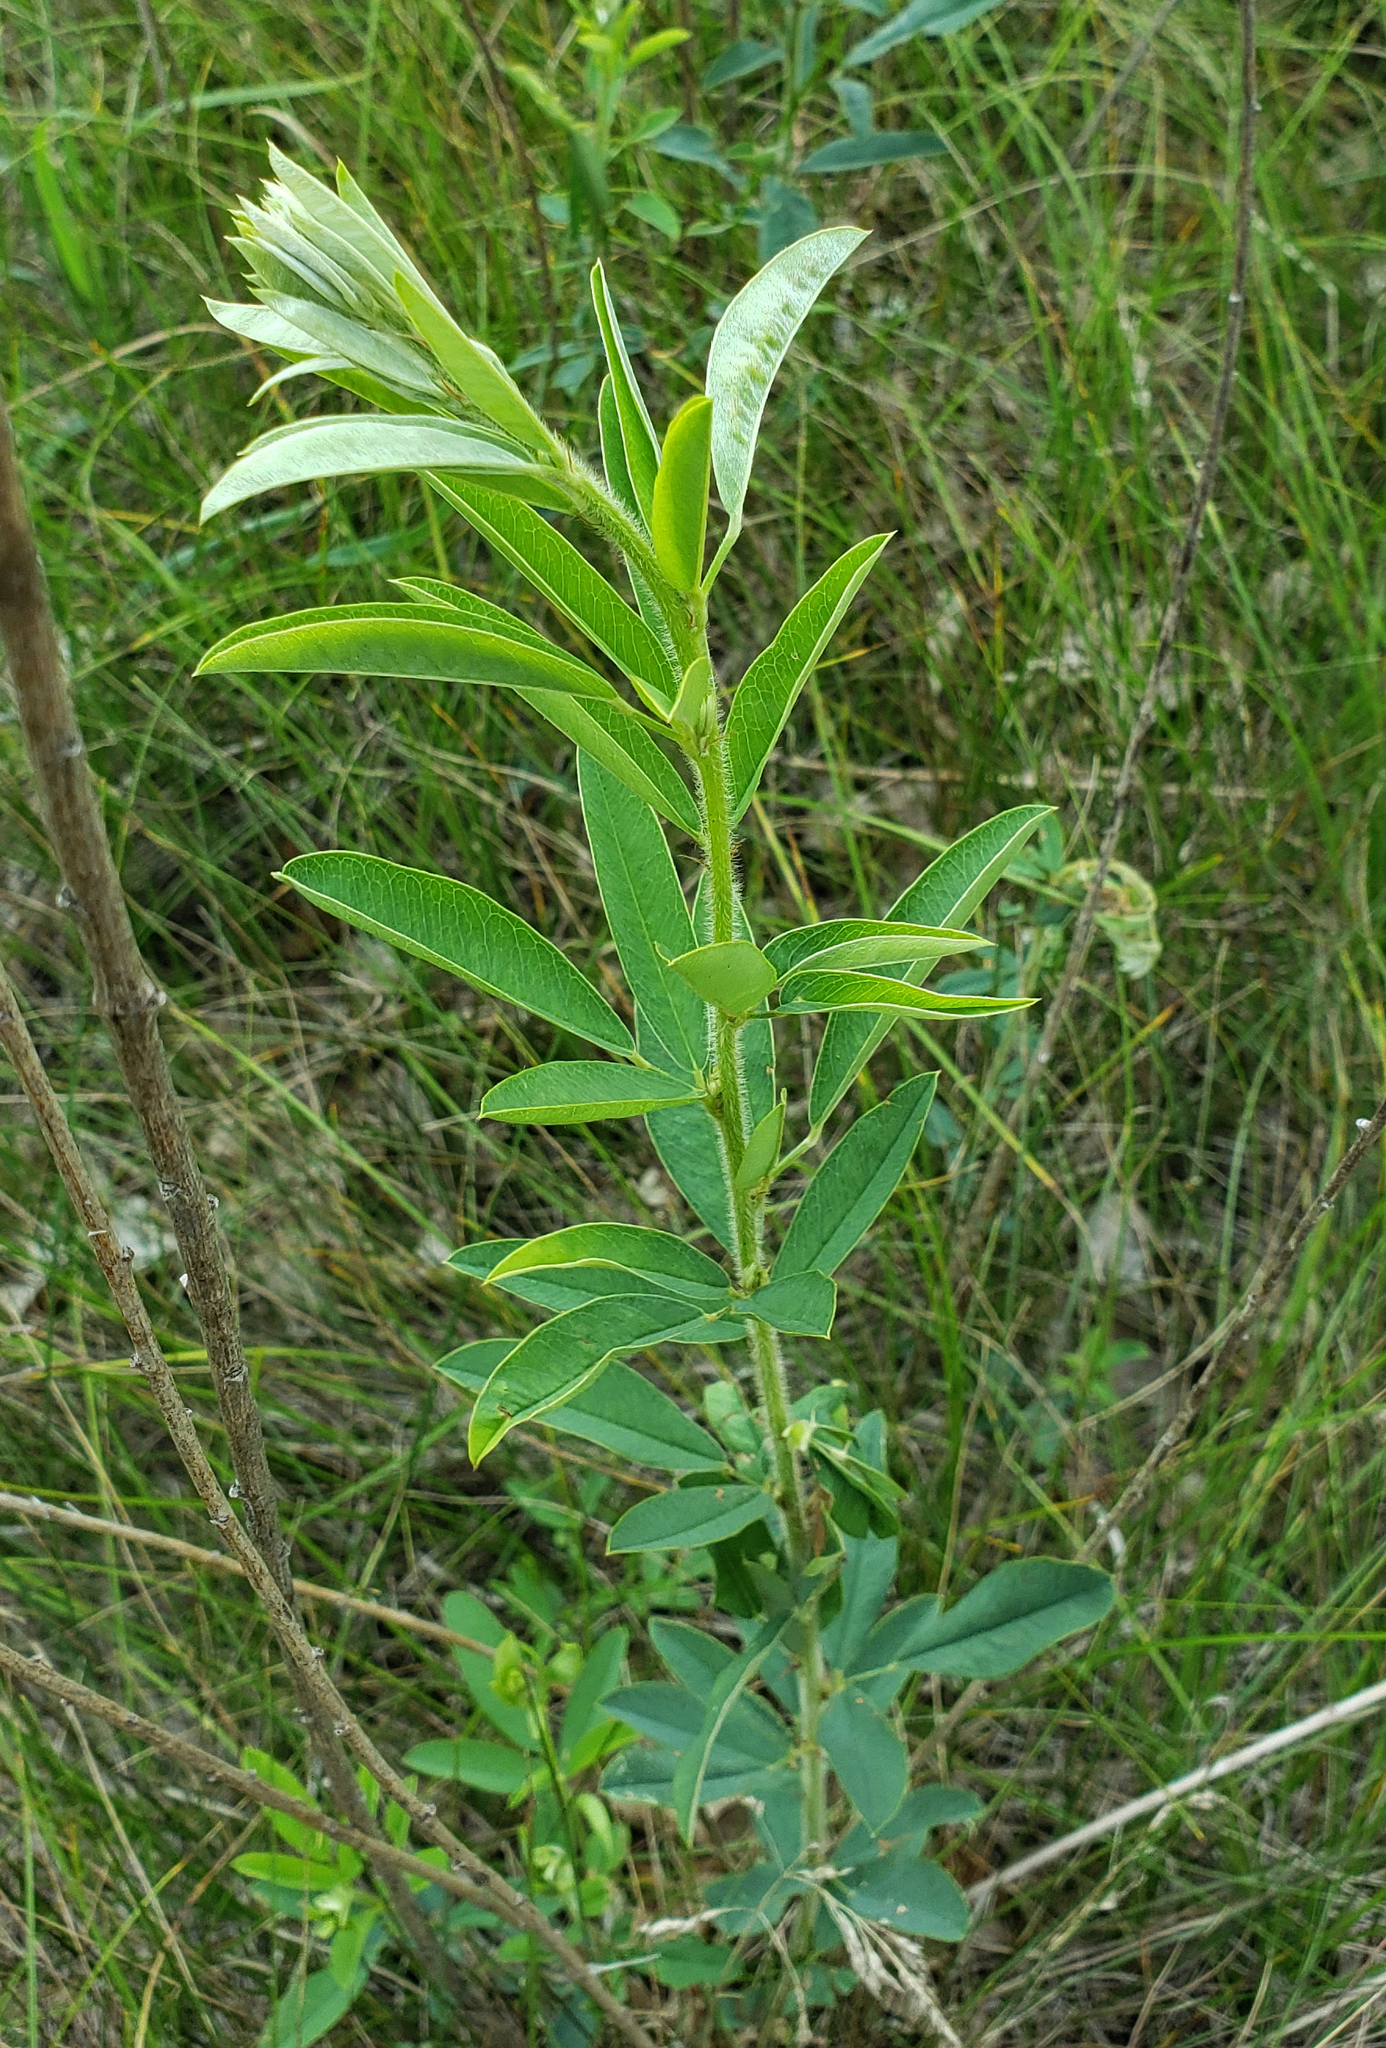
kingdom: Plantae
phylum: Tracheophyta
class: Magnoliopsida
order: Fabales
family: Fabaceae
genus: Lespedeza
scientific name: Lespedeza capitata
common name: Dusty clover
